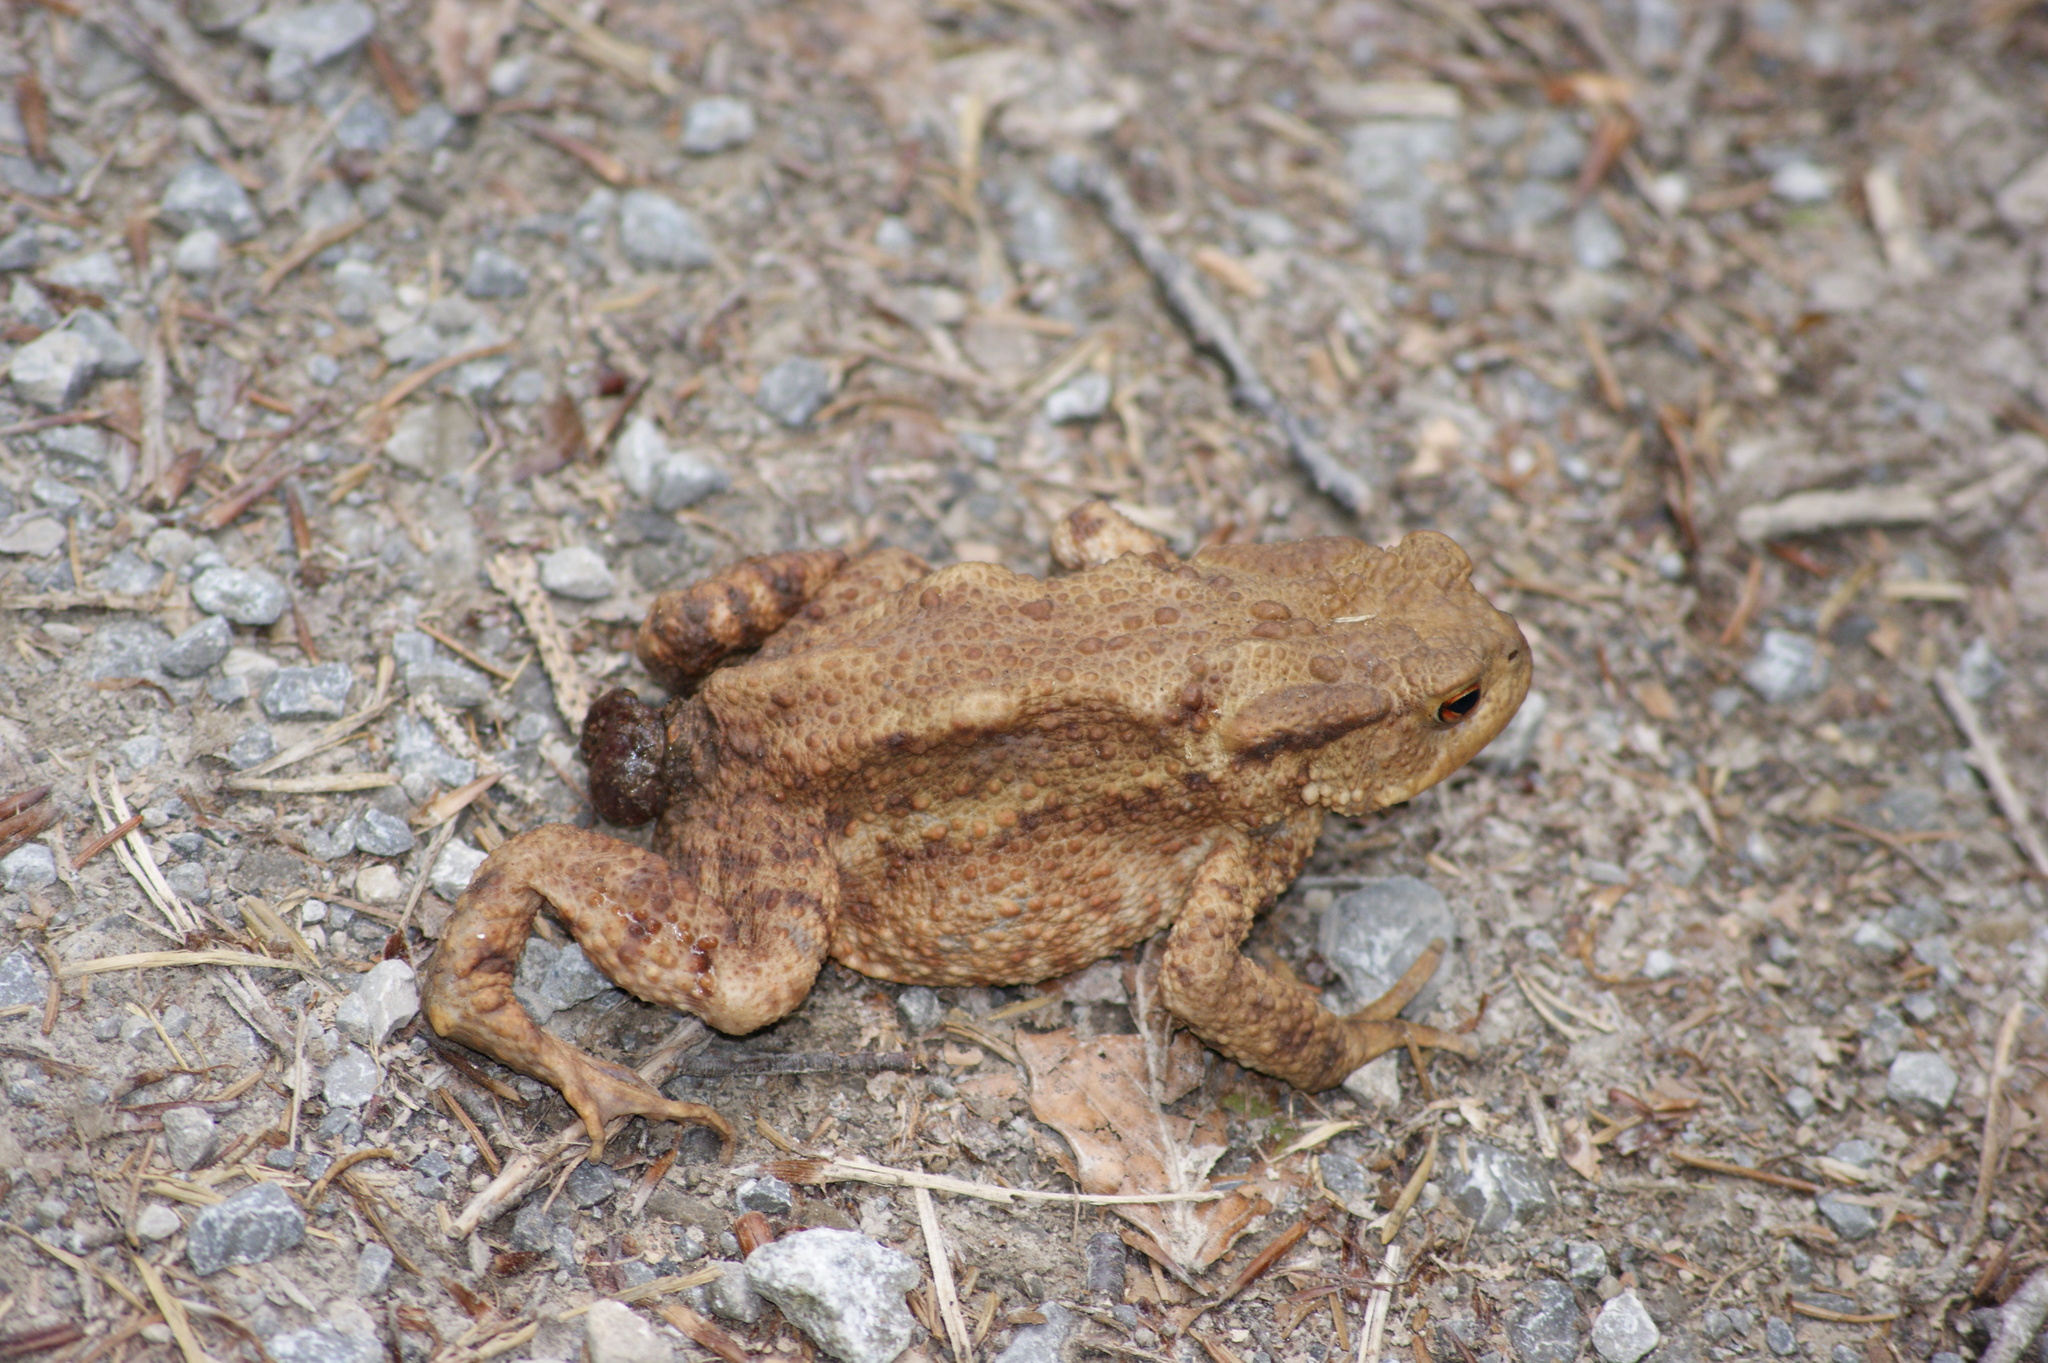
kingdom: Animalia
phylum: Chordata
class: Amphibia
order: Anura
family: Bufonidae
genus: Bufo
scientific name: Bufo bufo
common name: Common toad
